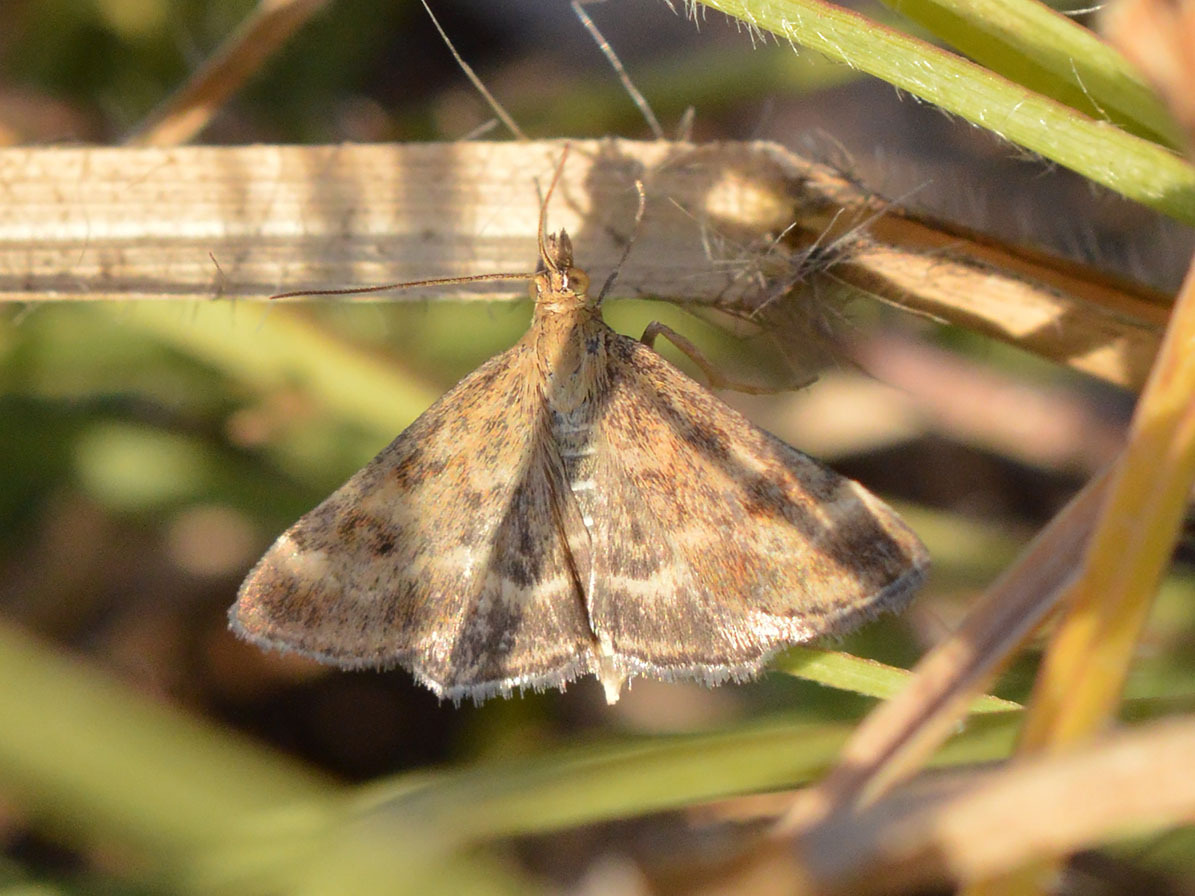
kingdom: Animalia
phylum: Arthropoda
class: Insecta
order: Lepidoptera
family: Crambidae
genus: Pyrausta
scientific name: Pyrausta despicata
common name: Straw-barred pearl
